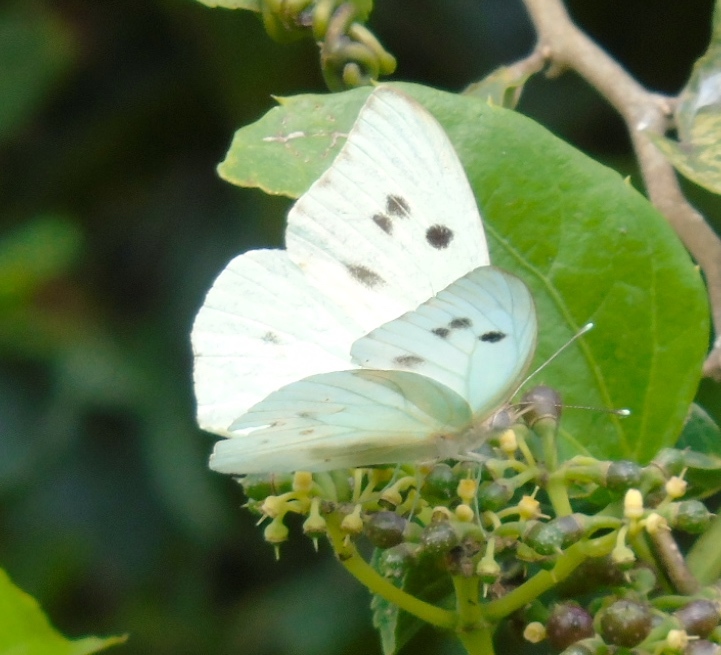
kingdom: Animalia
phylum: Arthropoda
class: Insecta
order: Lepidoptera
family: Pieridae
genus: Ganyra
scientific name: Ganyra josephina
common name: Giant white
